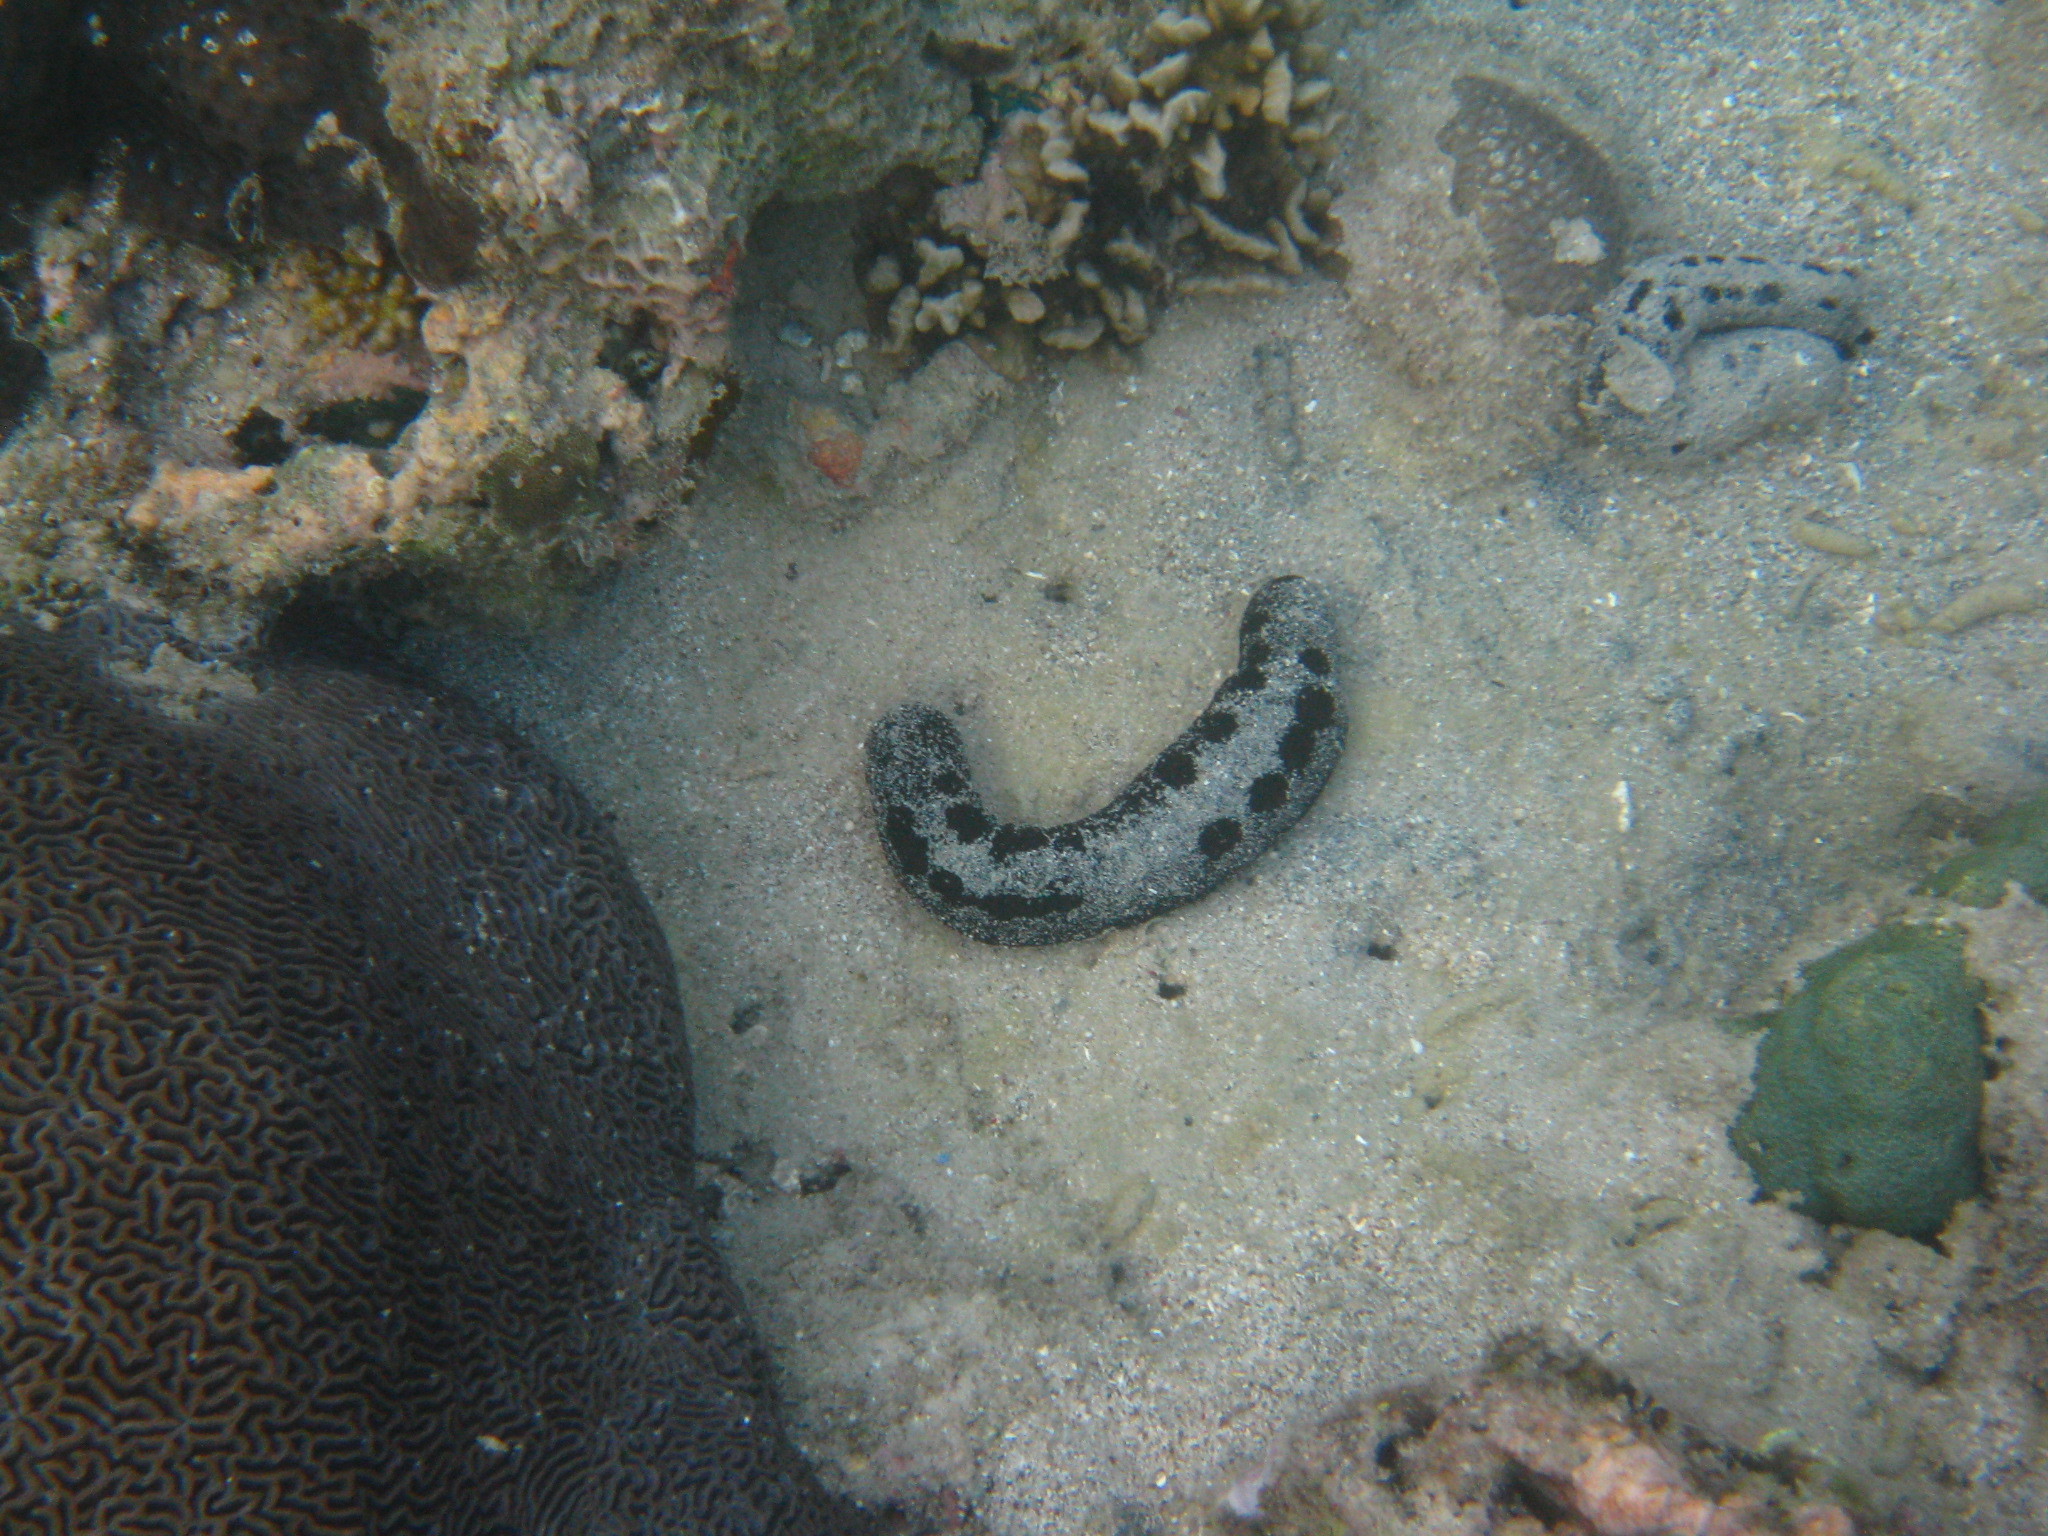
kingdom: Animalia
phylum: Echinodermata
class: Holothuroidea
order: Holothuriida
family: Holothuriidae
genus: Holothuria
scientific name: Holothuria atra
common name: Lollyfish
